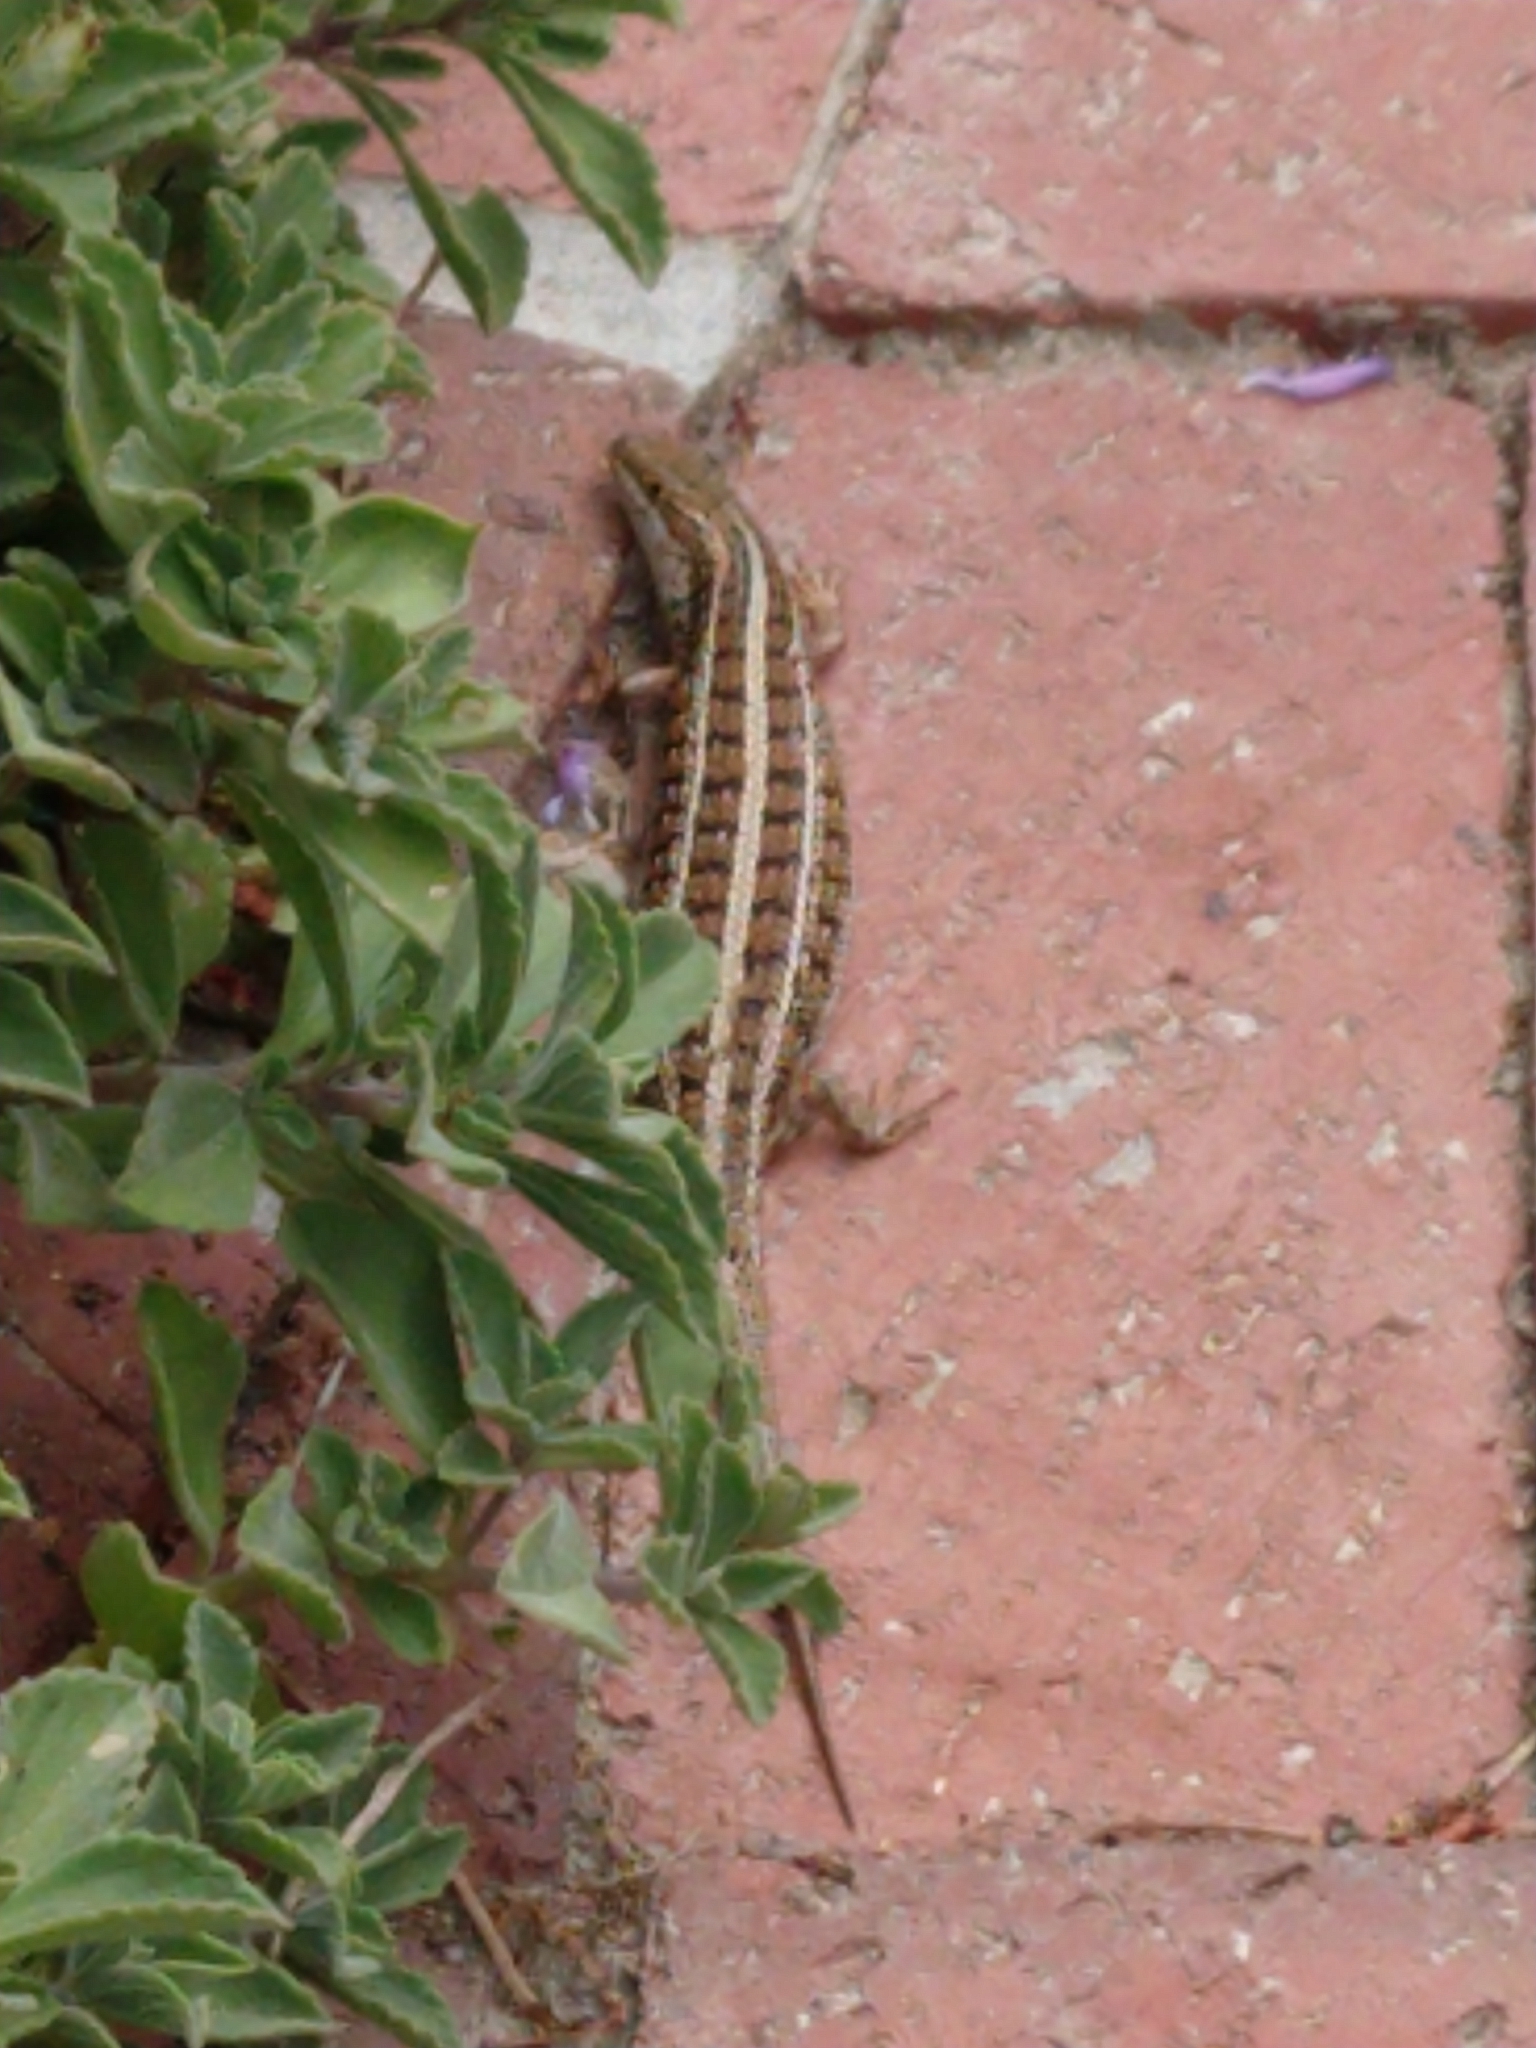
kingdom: Animalia
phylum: Chordata
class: Squamata
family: Scincidae
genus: Trachylepis
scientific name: Trachylepis capensis
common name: Cape skink
